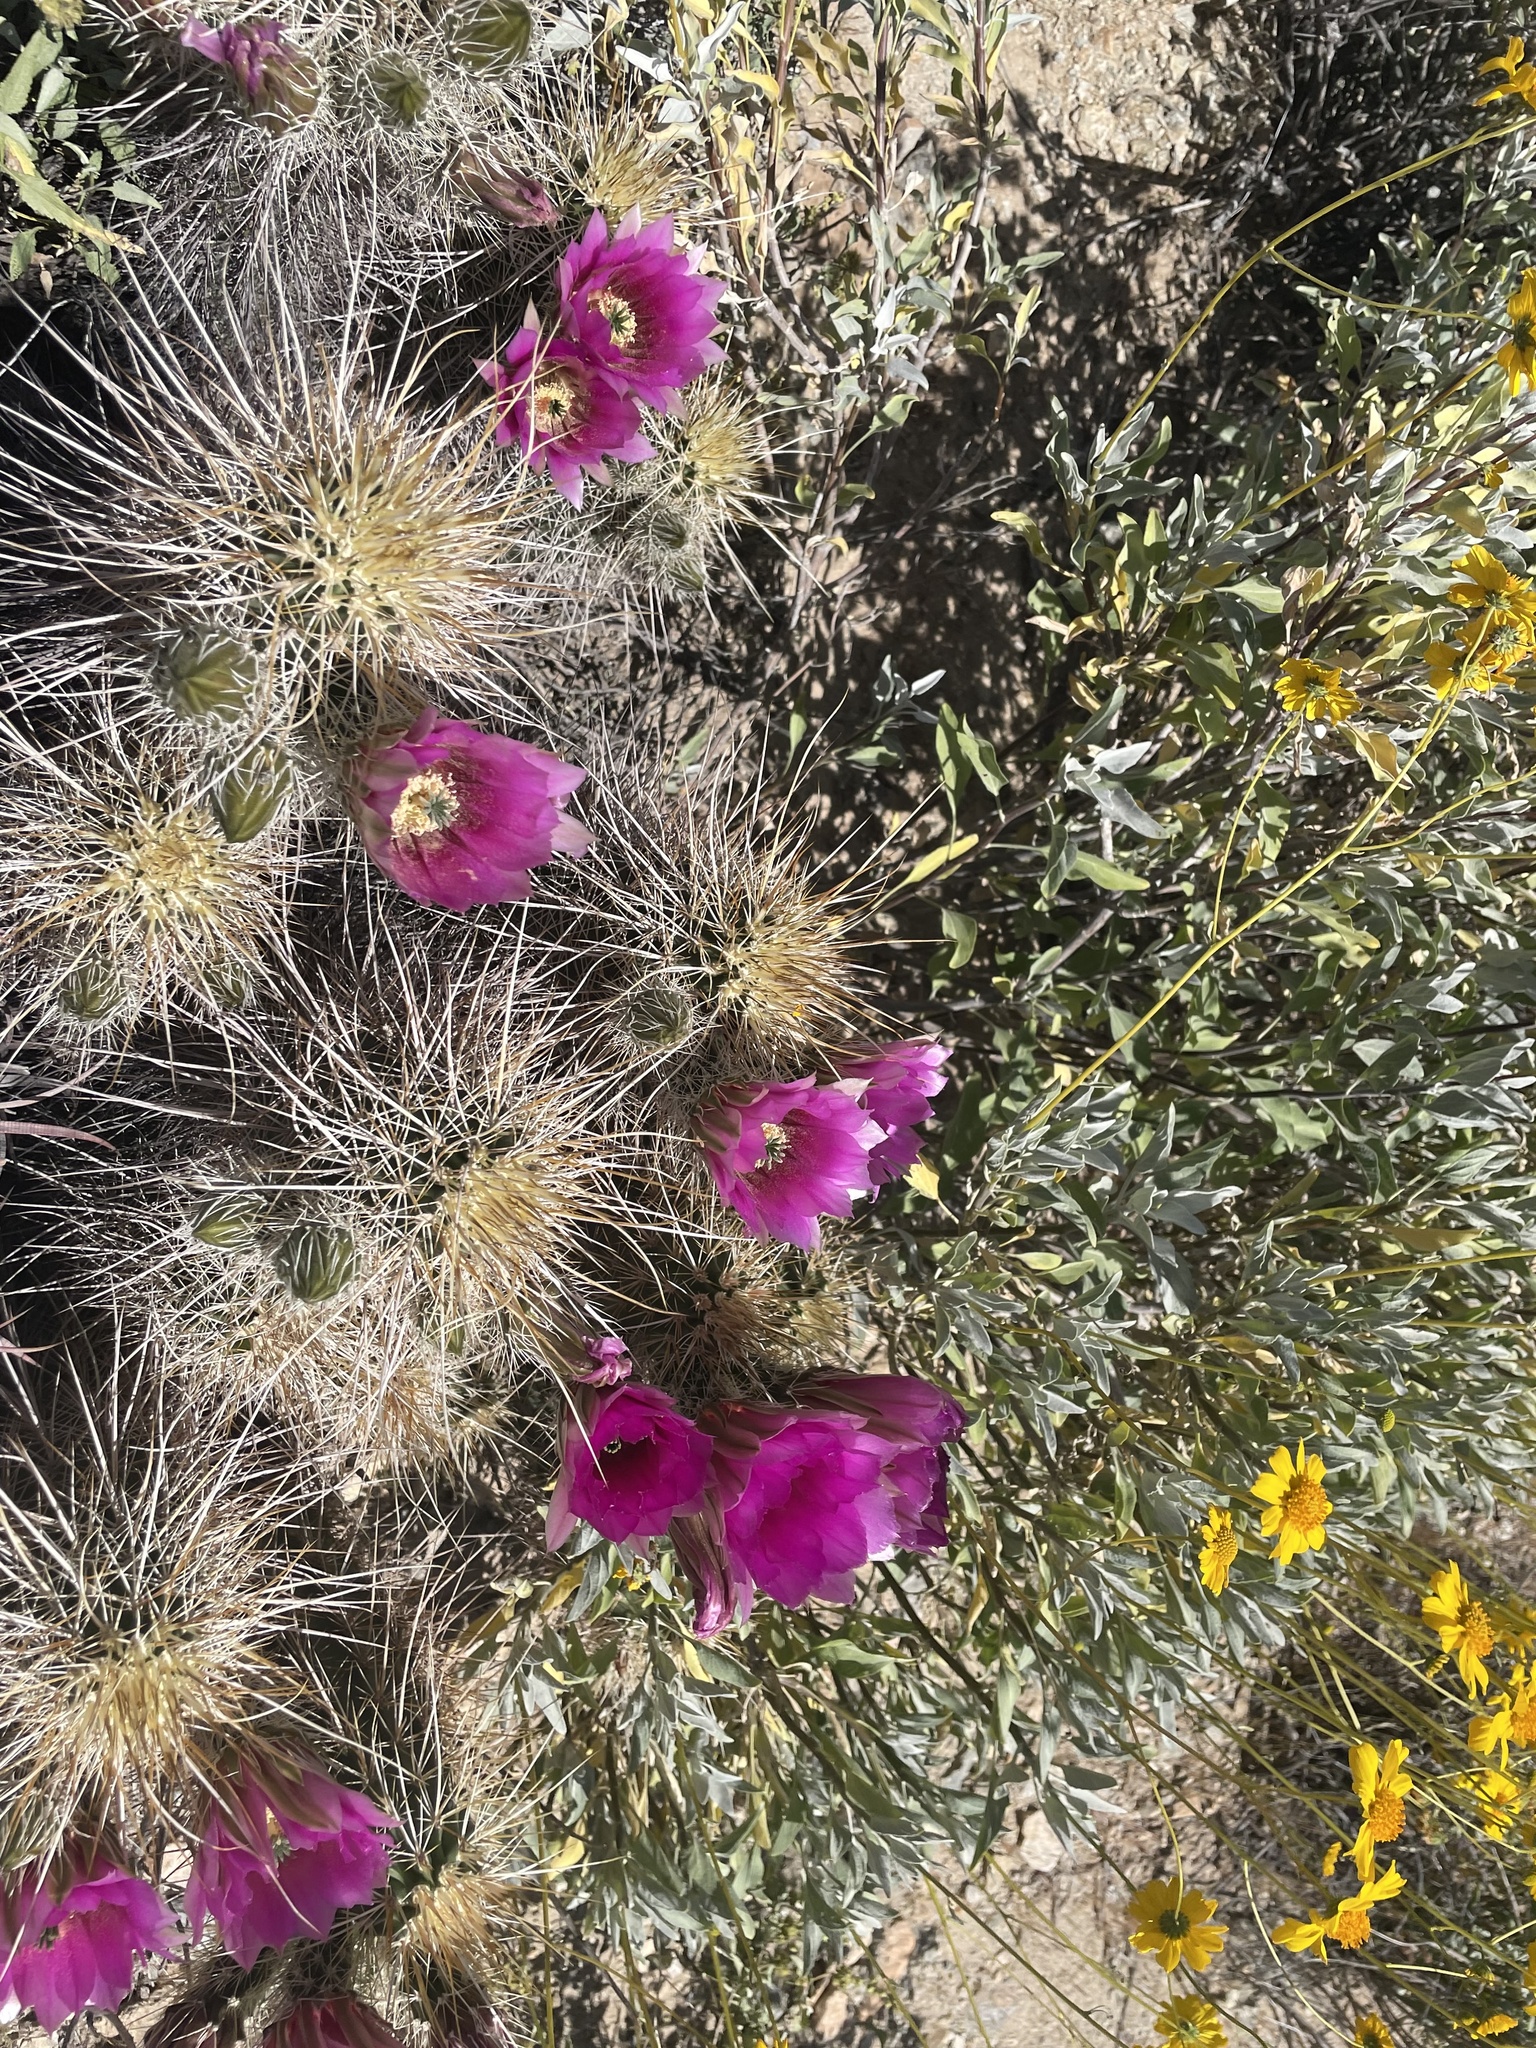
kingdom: Plantae
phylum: Tracheophyta
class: Magnoliopsida
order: Caryophyllales
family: Cactaceae
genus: Echinocereus
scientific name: Echinocereus engelmannii
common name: Engelmann's hedgehog cactus
